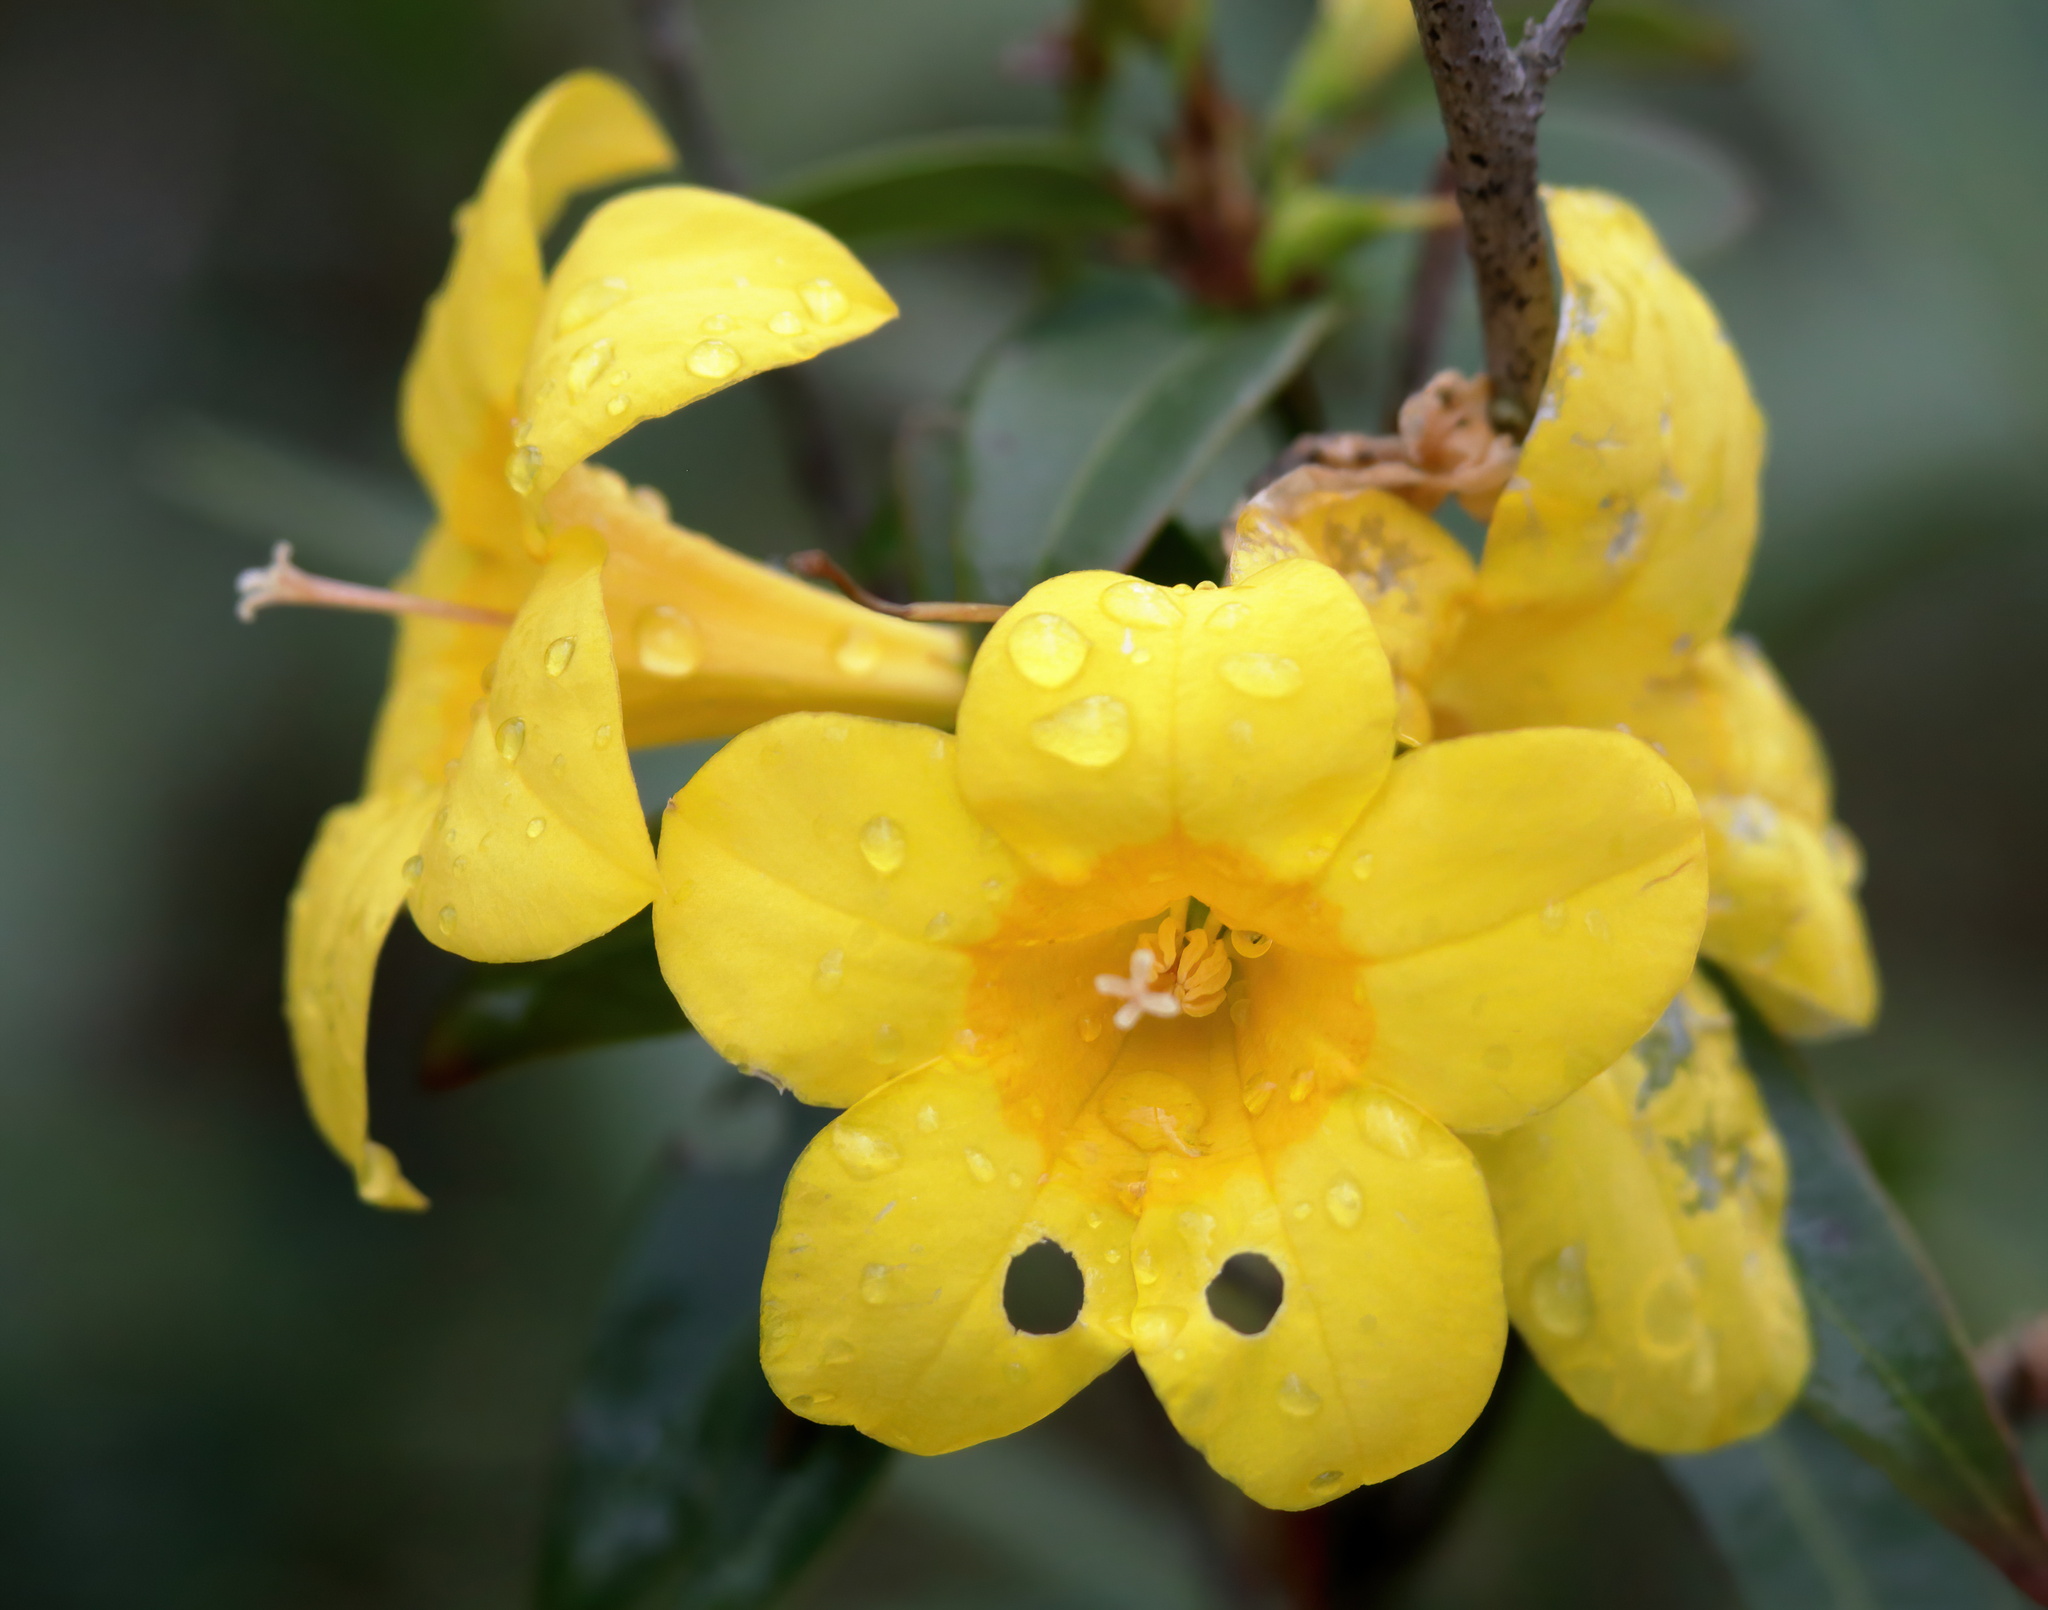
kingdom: Plantae
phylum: Tracheophyta
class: Magnoliopsida
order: Gentianales
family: Gelsemiaceae
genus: Gelsemium
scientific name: Gelsemium rankinii
